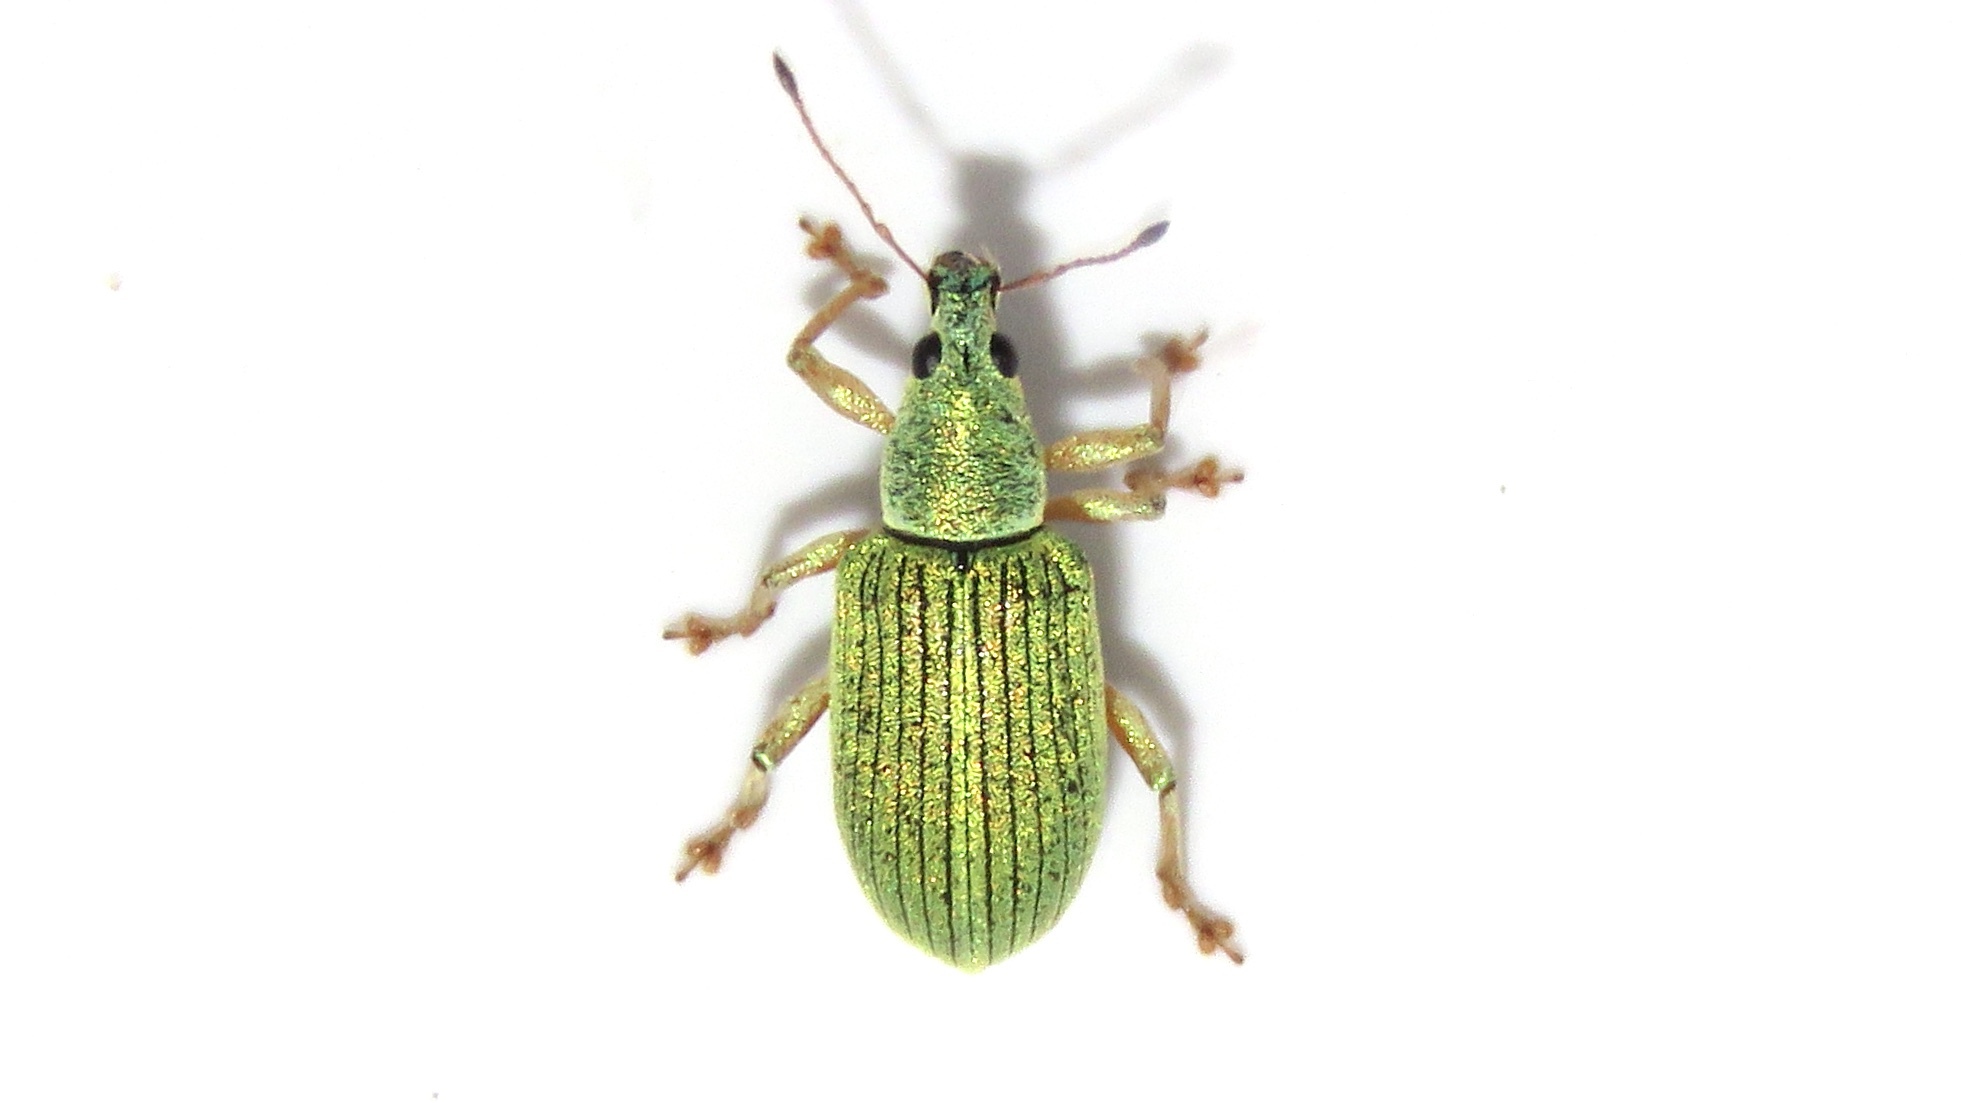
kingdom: Animalia
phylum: Arthropoda
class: Insecta
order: Coleoptera
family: Curculionidae
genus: Polydrusus
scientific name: Polydrusus formosus
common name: Weevil
